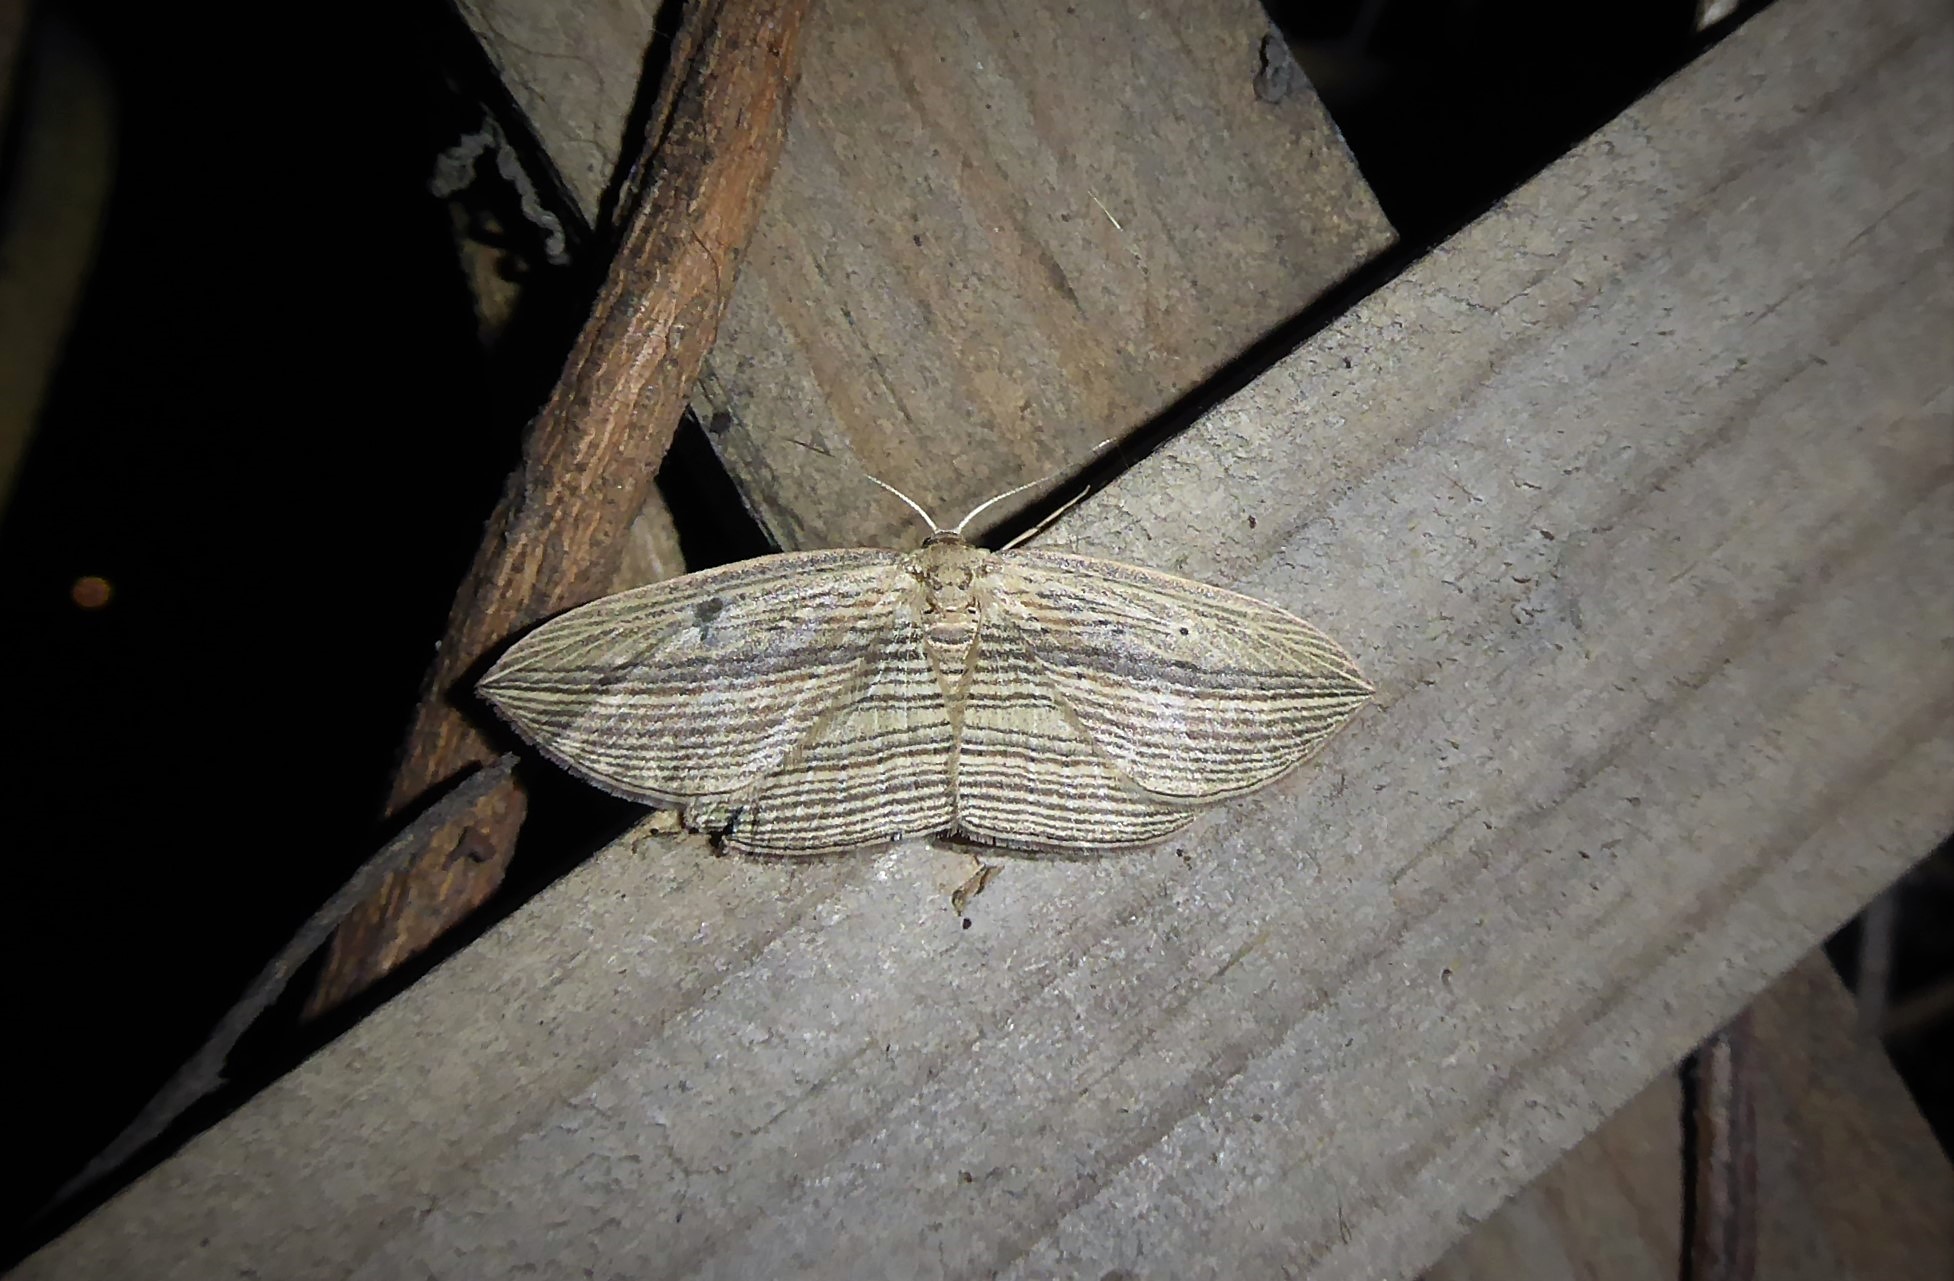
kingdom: Animalia
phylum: Arthropoda
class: Insecta
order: Lepidoptera
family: Geometridae
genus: Epiphryne
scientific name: Epiphryne verriculata
